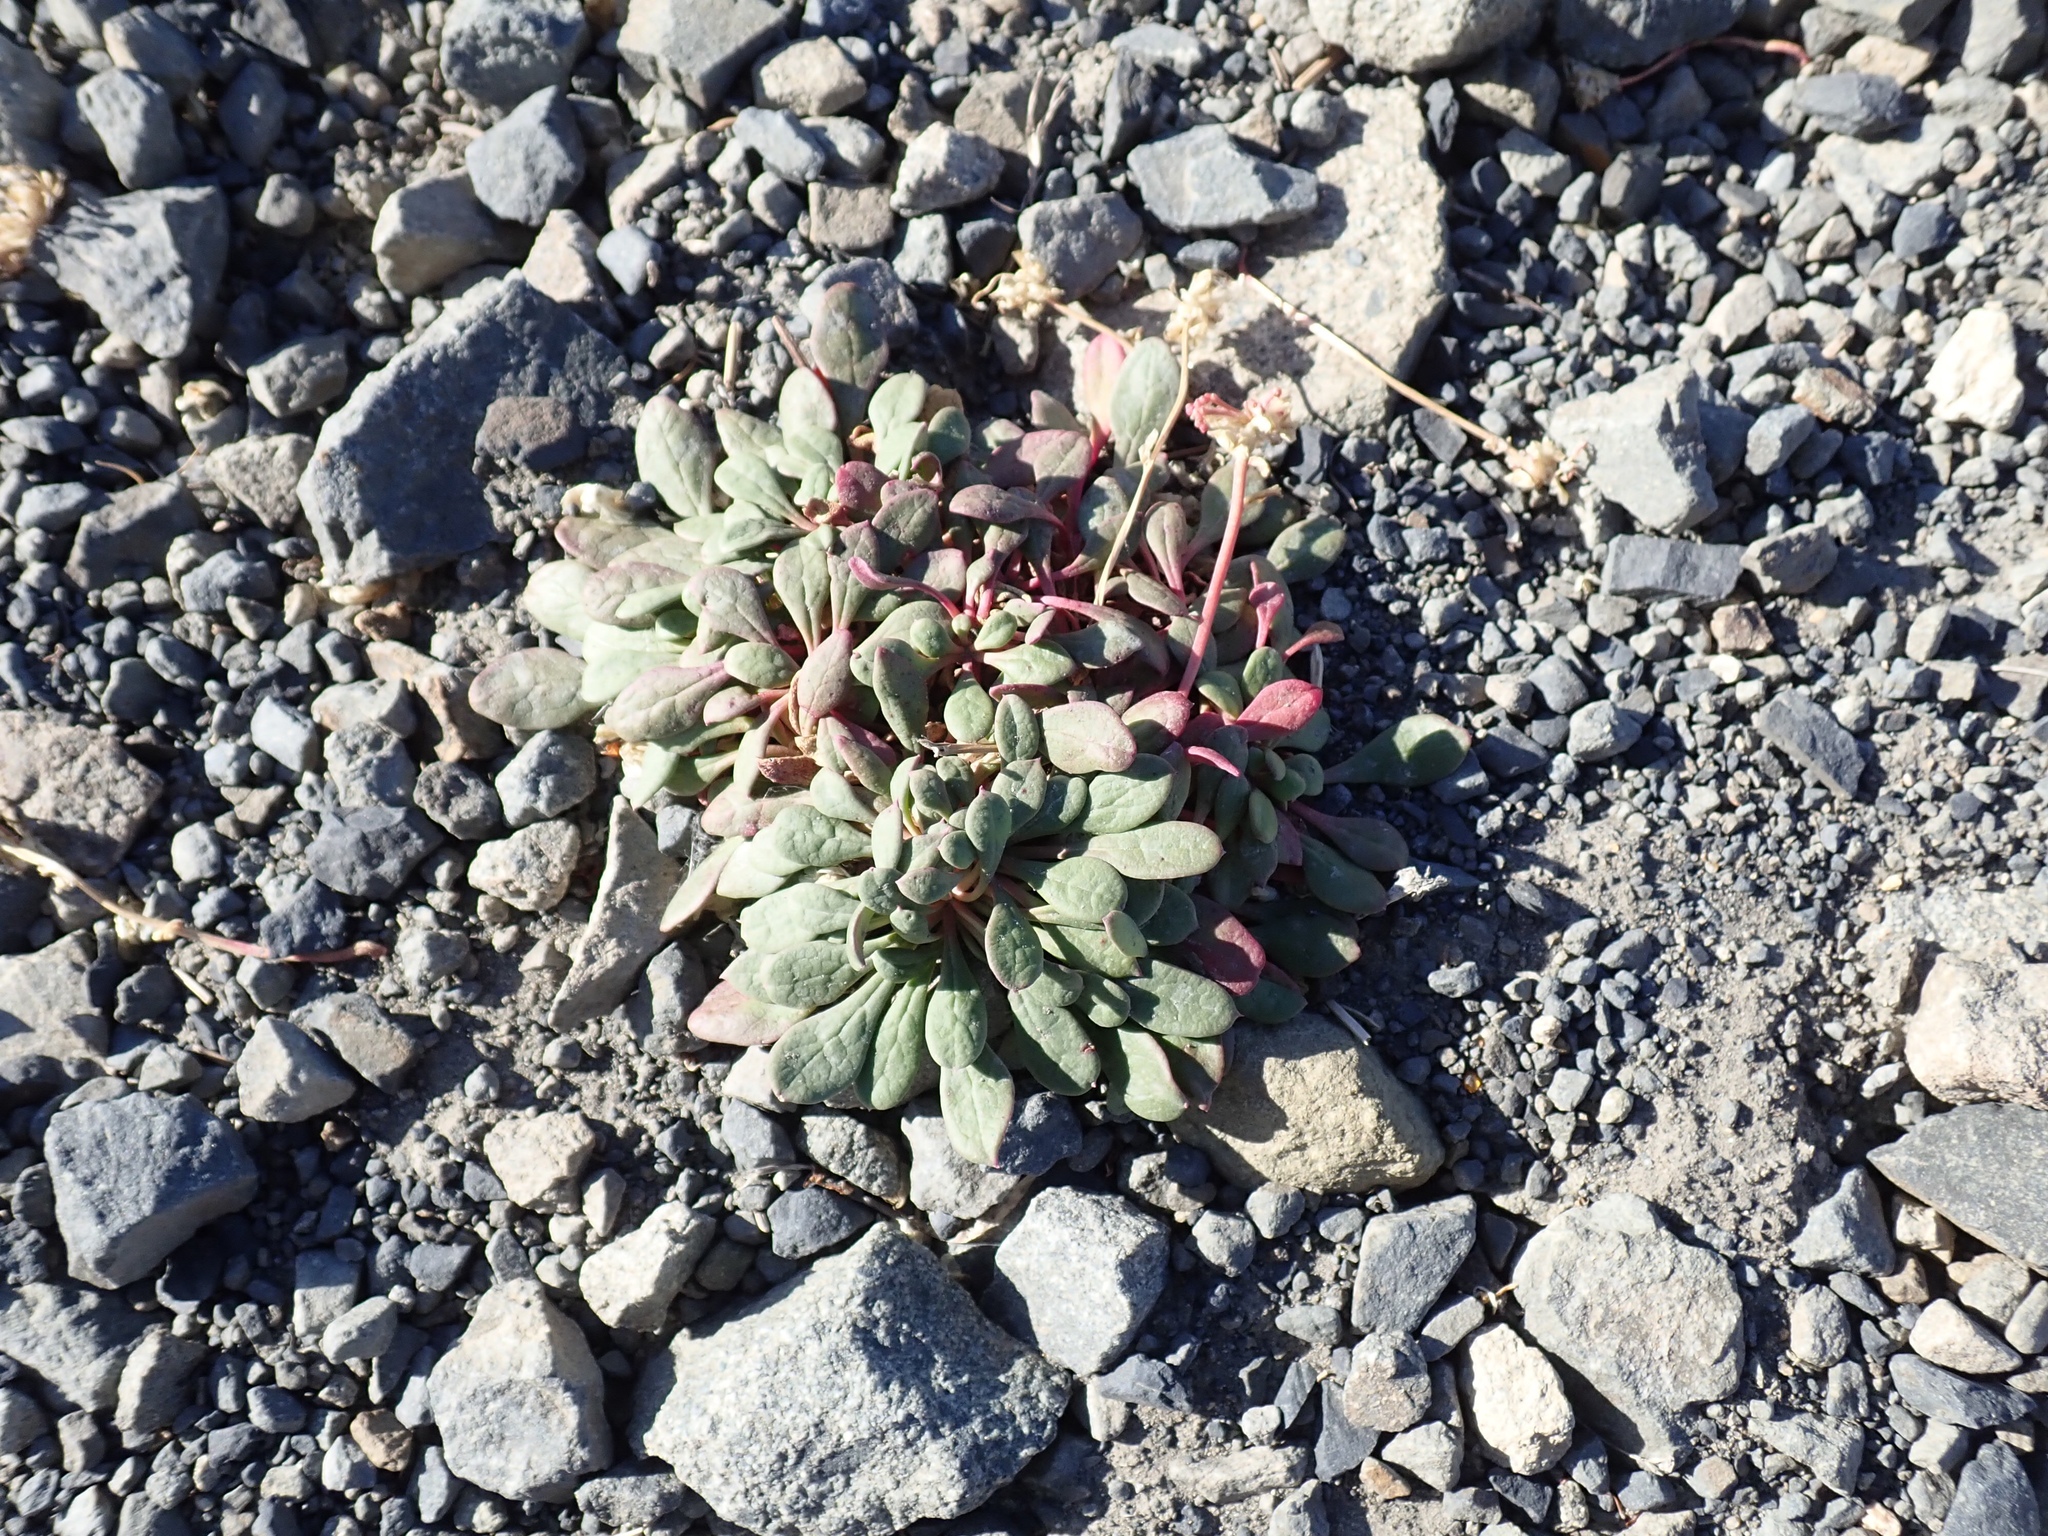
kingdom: Plantae
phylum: Tracheophyta
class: Magnoliopsida
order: Caryophyllales
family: Montiaceae
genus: Calyptridium
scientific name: Calyptridium umbellatum
